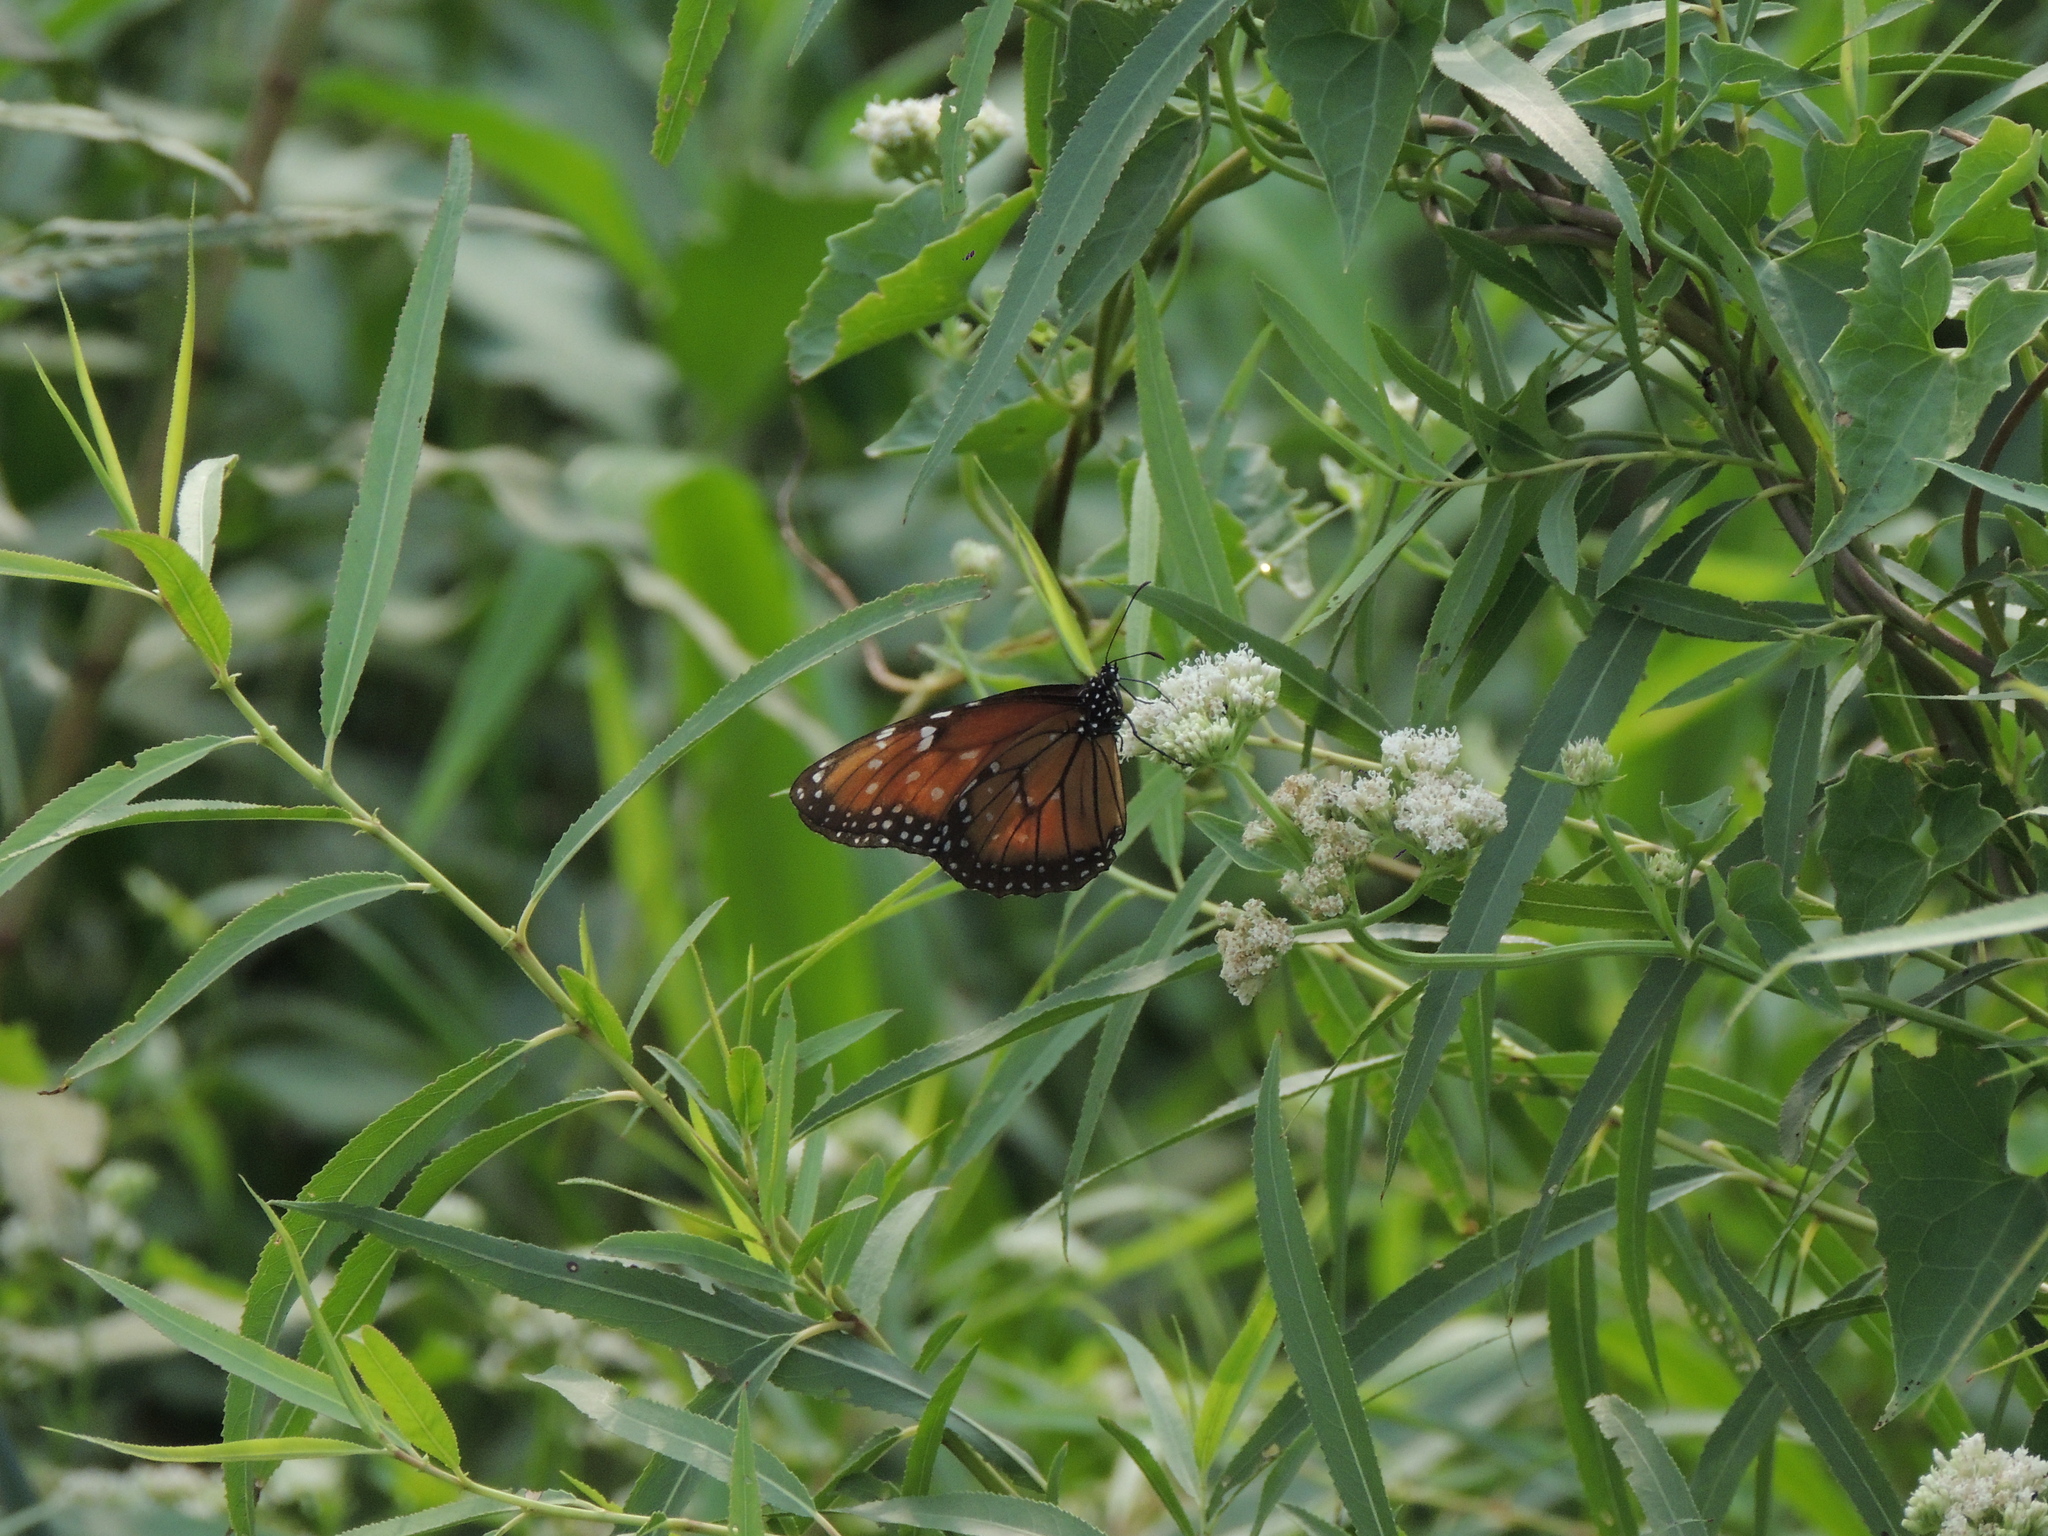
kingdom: Animalia
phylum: Arthropoda
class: Insecta
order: Lepidoptera
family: Nymphalidae
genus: Danaus
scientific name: Danaus eresimus
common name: Soldier
